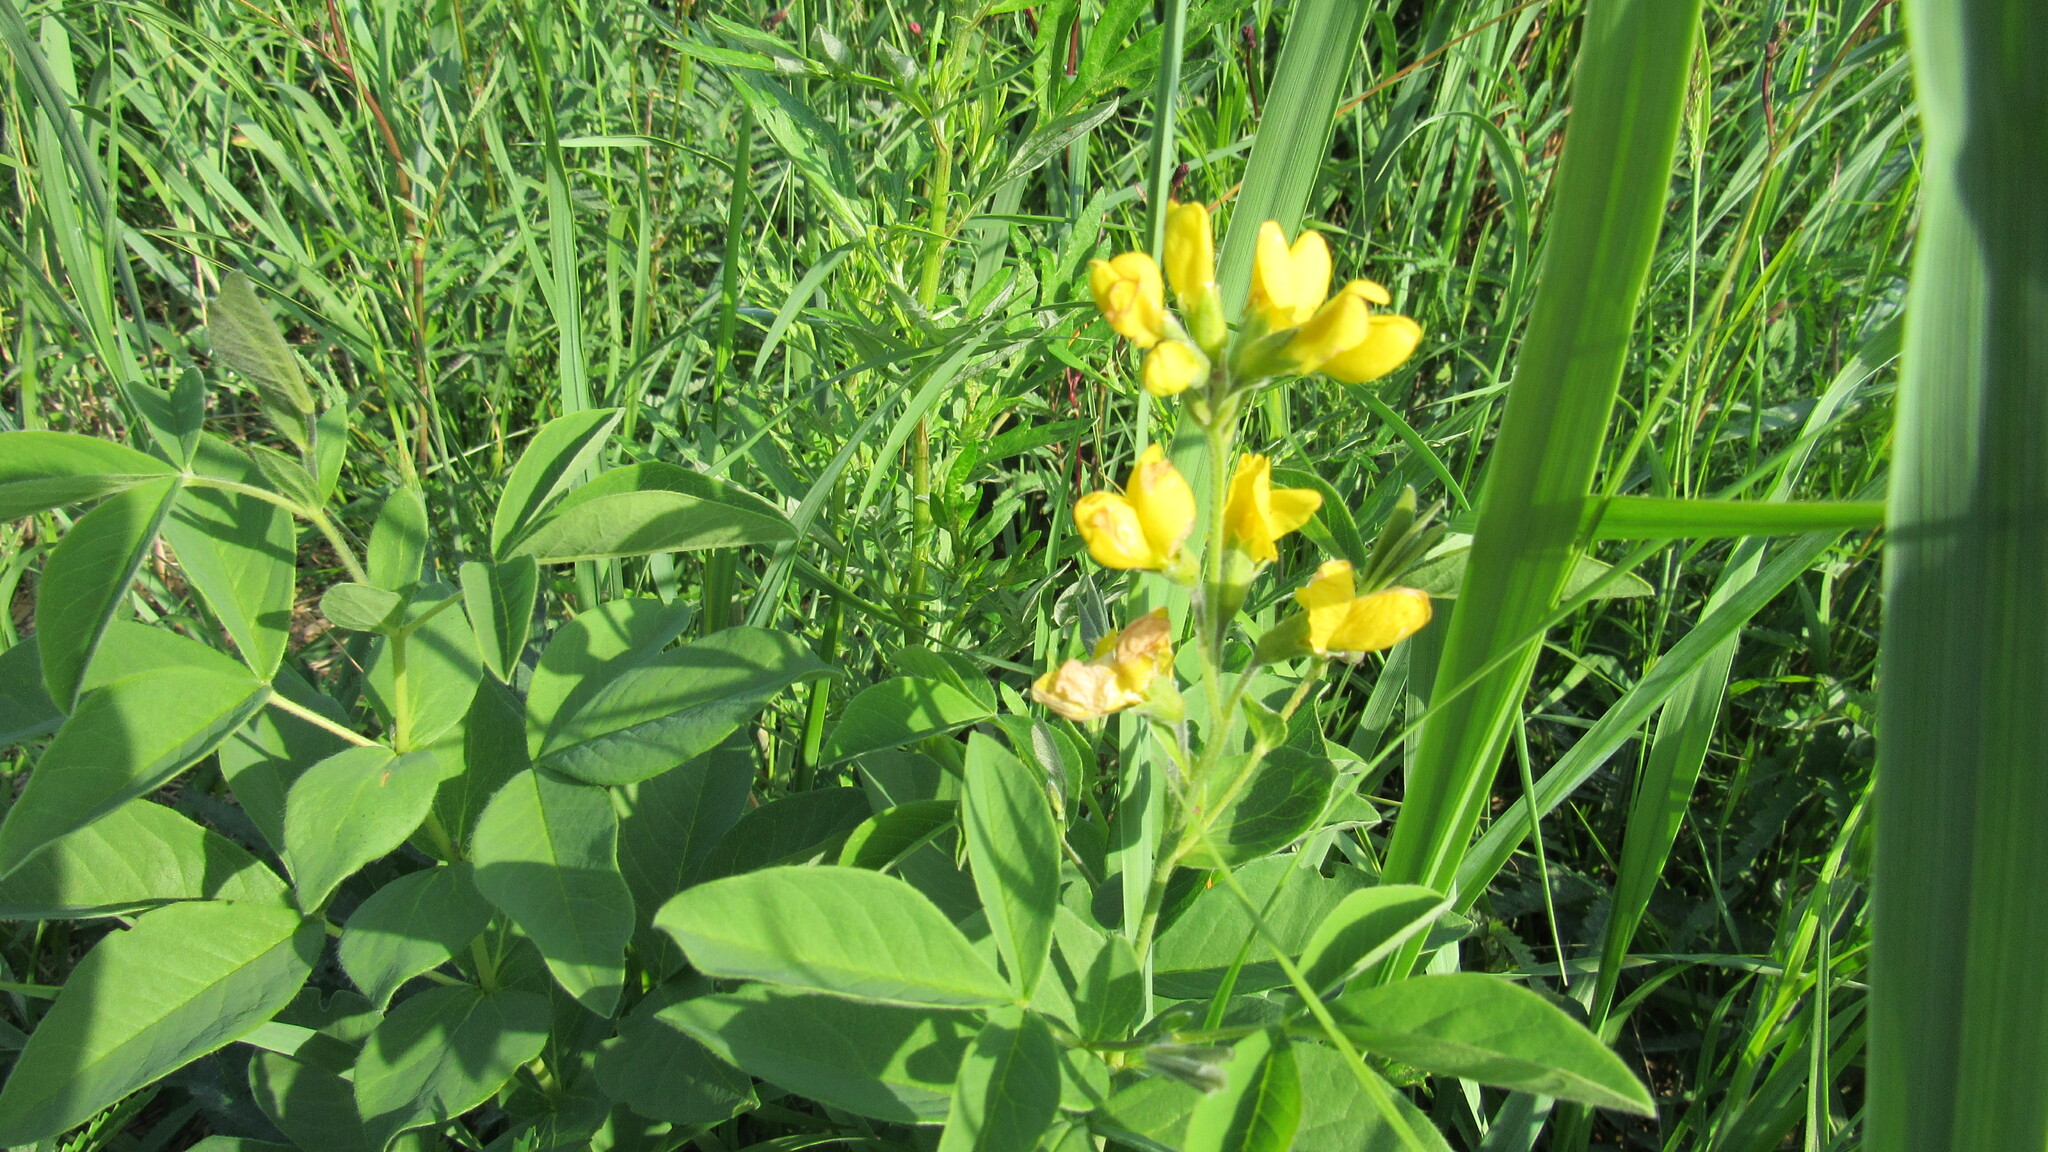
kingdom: Plantae
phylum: Tracheophyta
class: Magnoliopsida
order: Fabales
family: Fabaceae
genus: Thermopsis
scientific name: Thermopsis lanceolata
